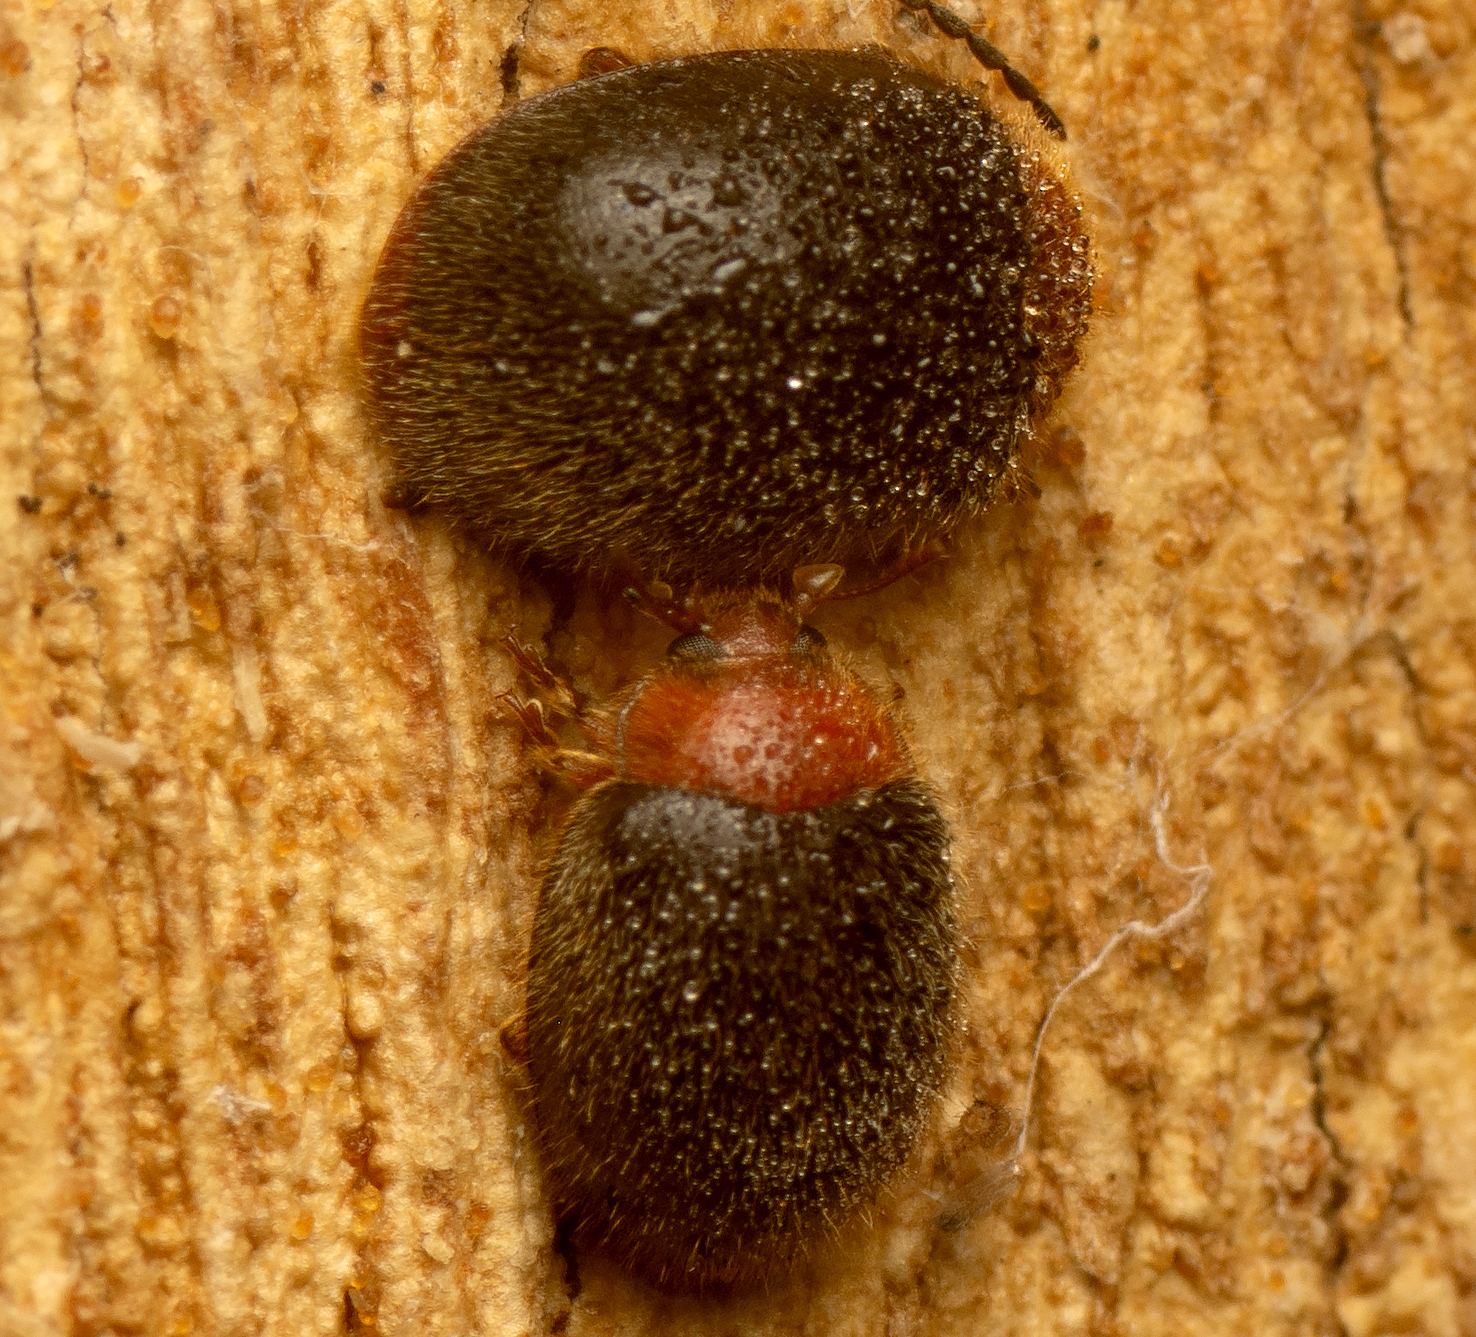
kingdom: Animalia
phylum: Arthropoda
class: Insecta
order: Coleoptera
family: Coccinellidae
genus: Rhyzobius
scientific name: Rhyzobius lophanthae
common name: Scale-eating ladybird beetle
